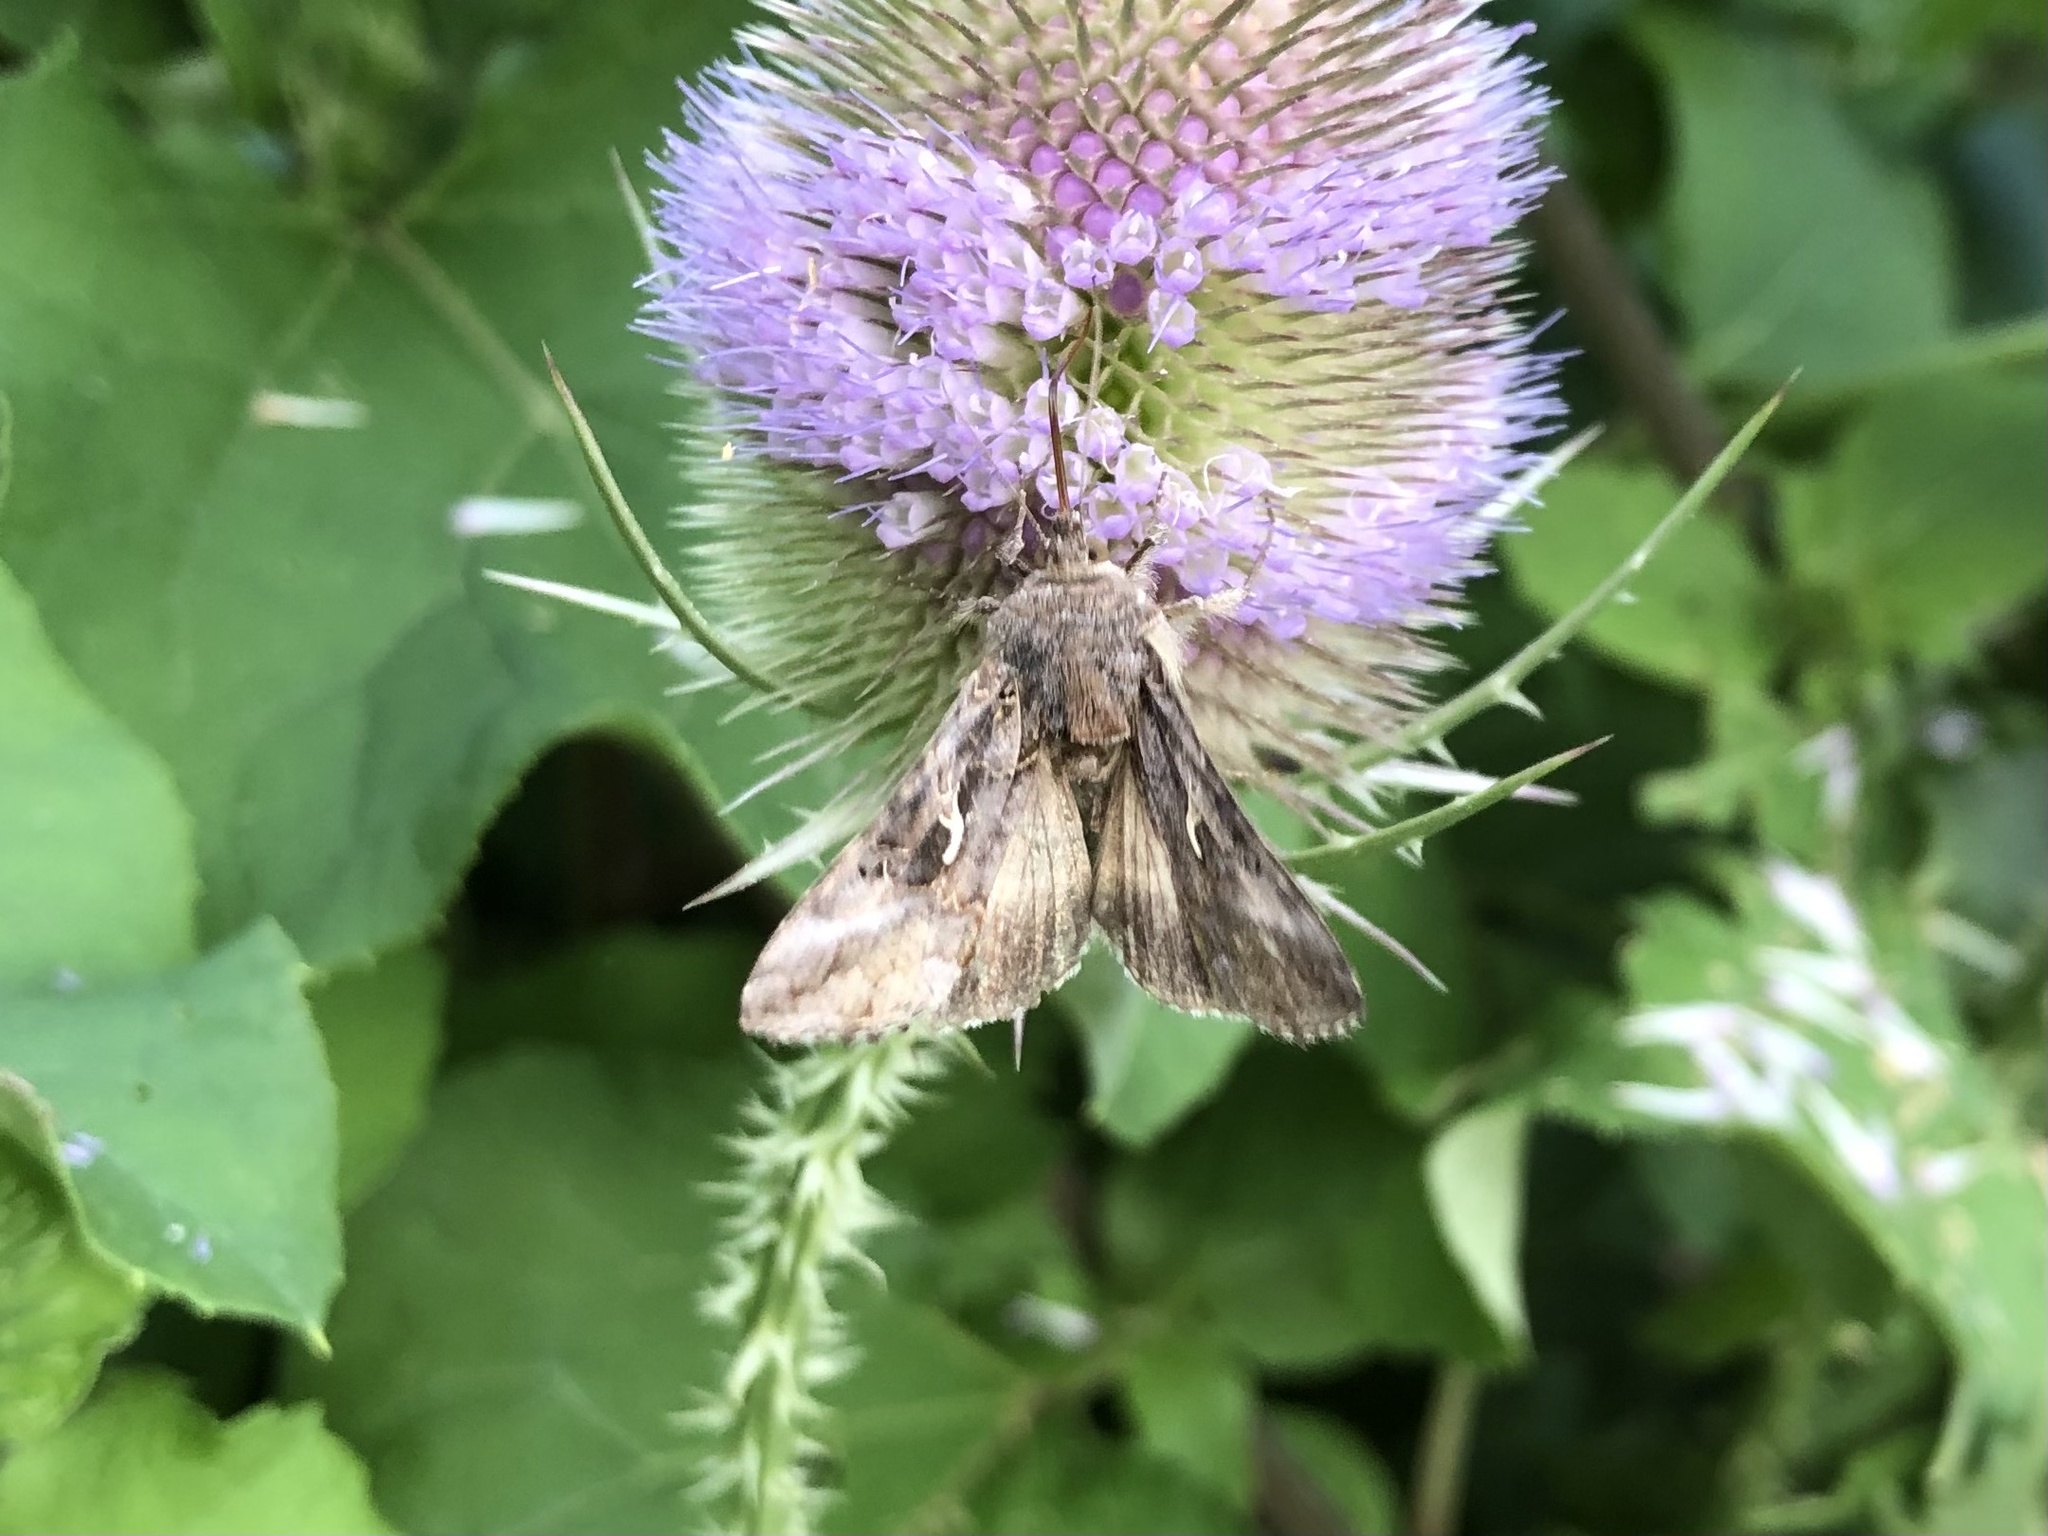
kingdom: Animalia
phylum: Arthropoda
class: Insecta
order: Lepidoptera
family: Noctuidae
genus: Autographa
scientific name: Autographa gamma
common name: Silver y
